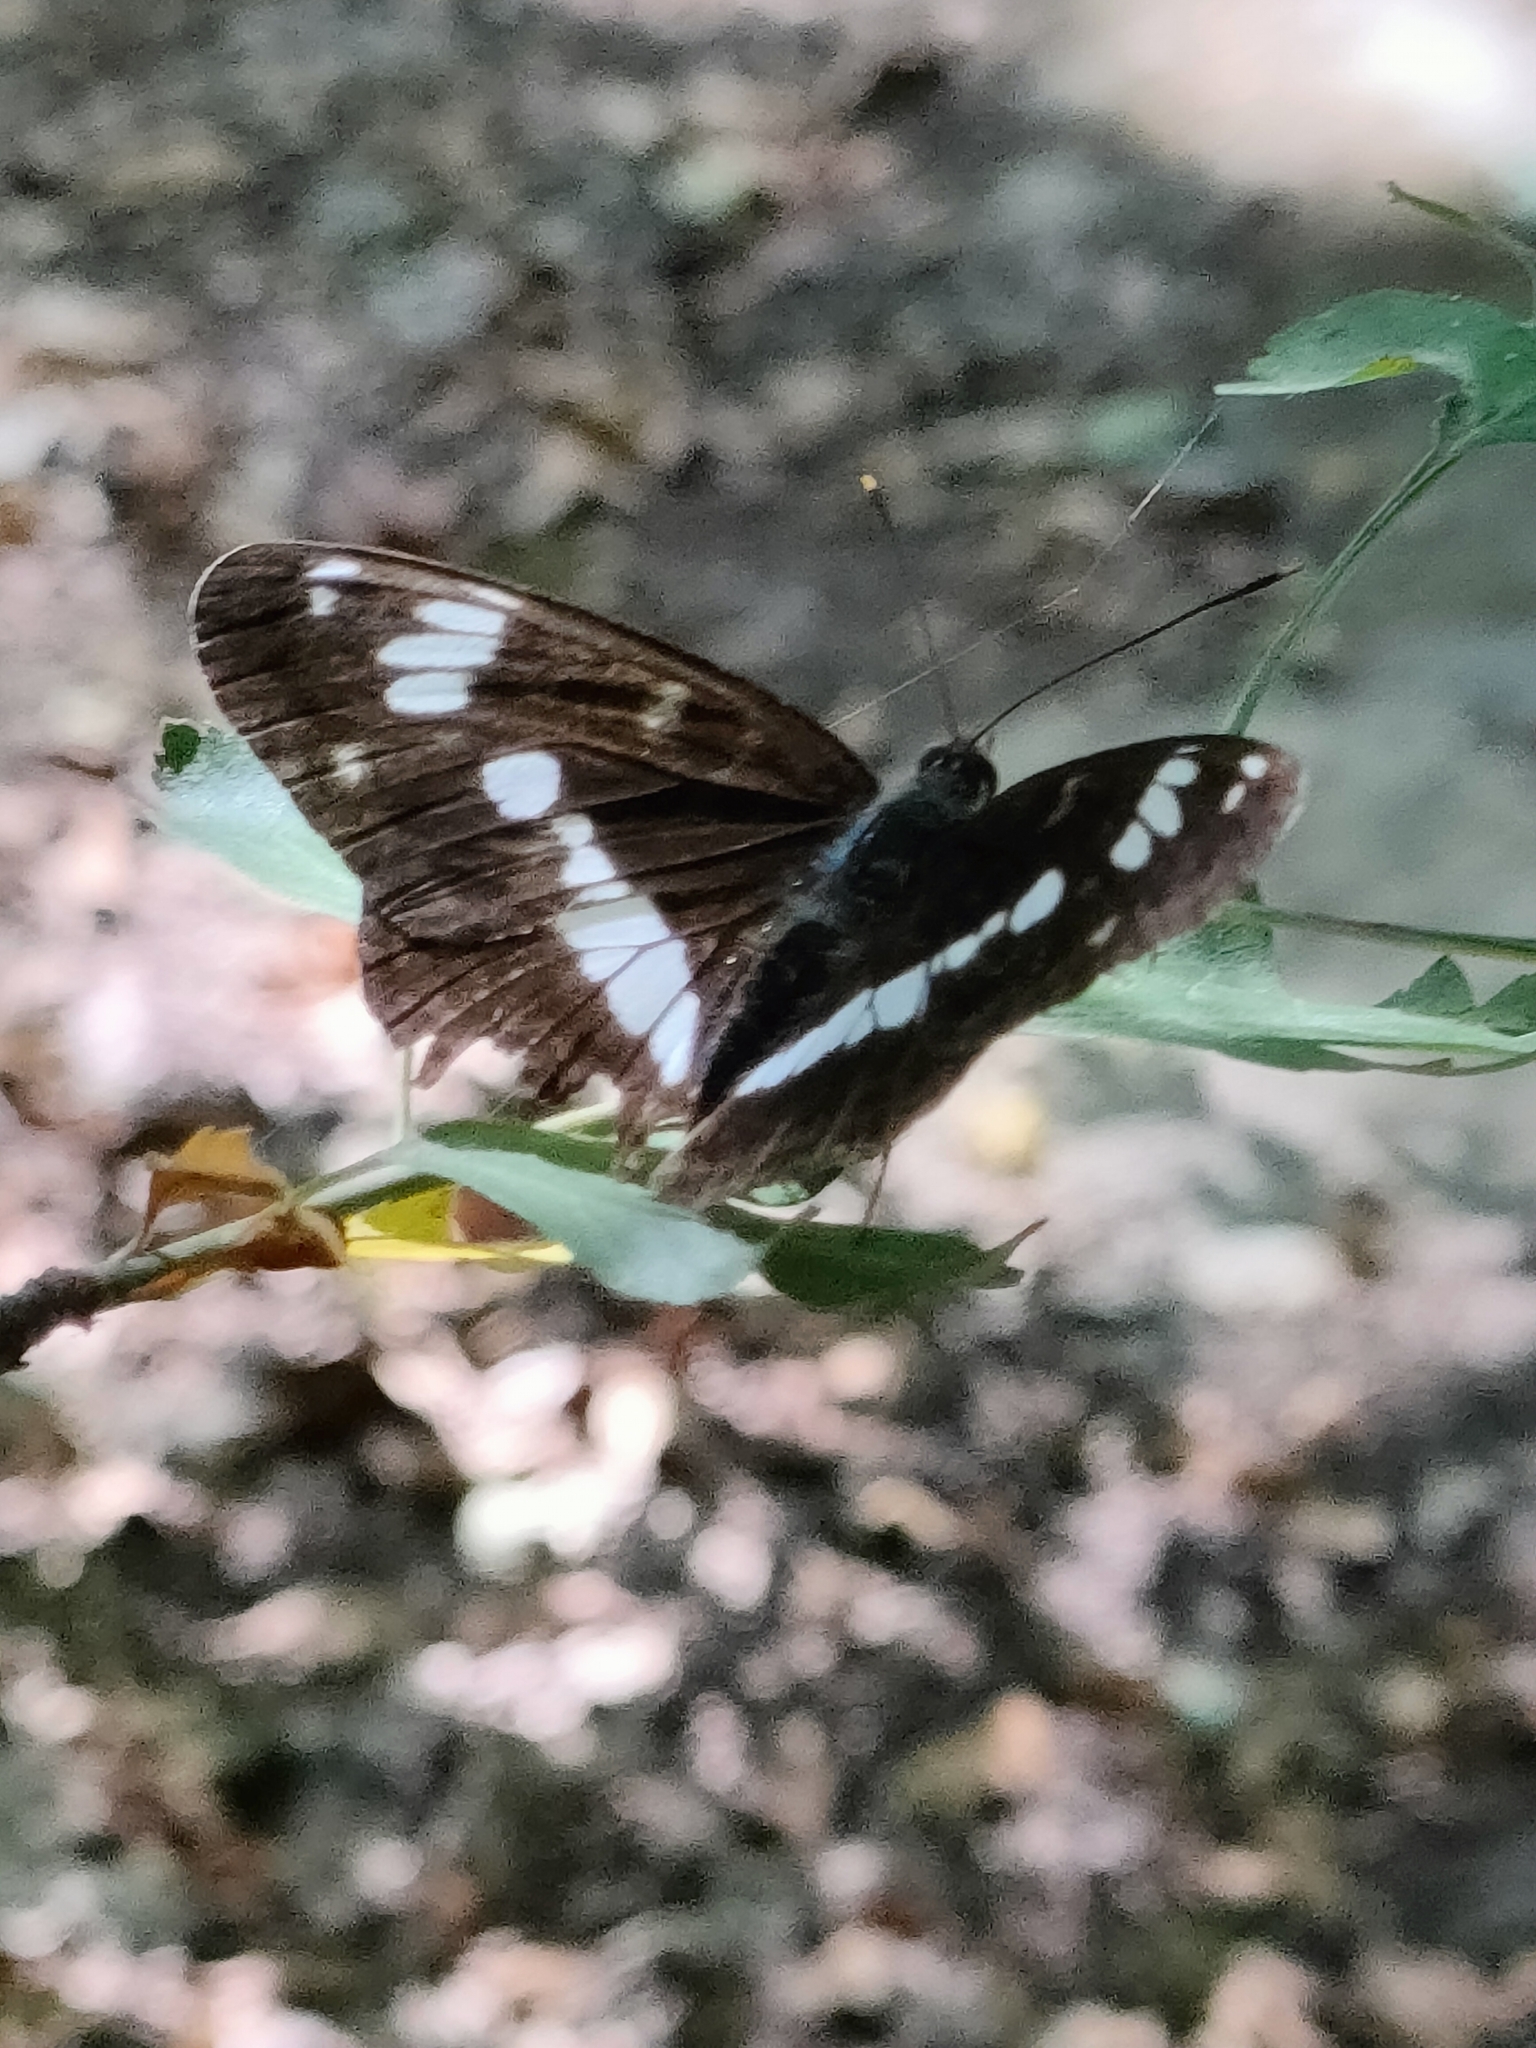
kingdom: Animalia
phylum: Arthropoda
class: Insecta
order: Lepidoptera
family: Nymphalidae
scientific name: Nymphalidae
